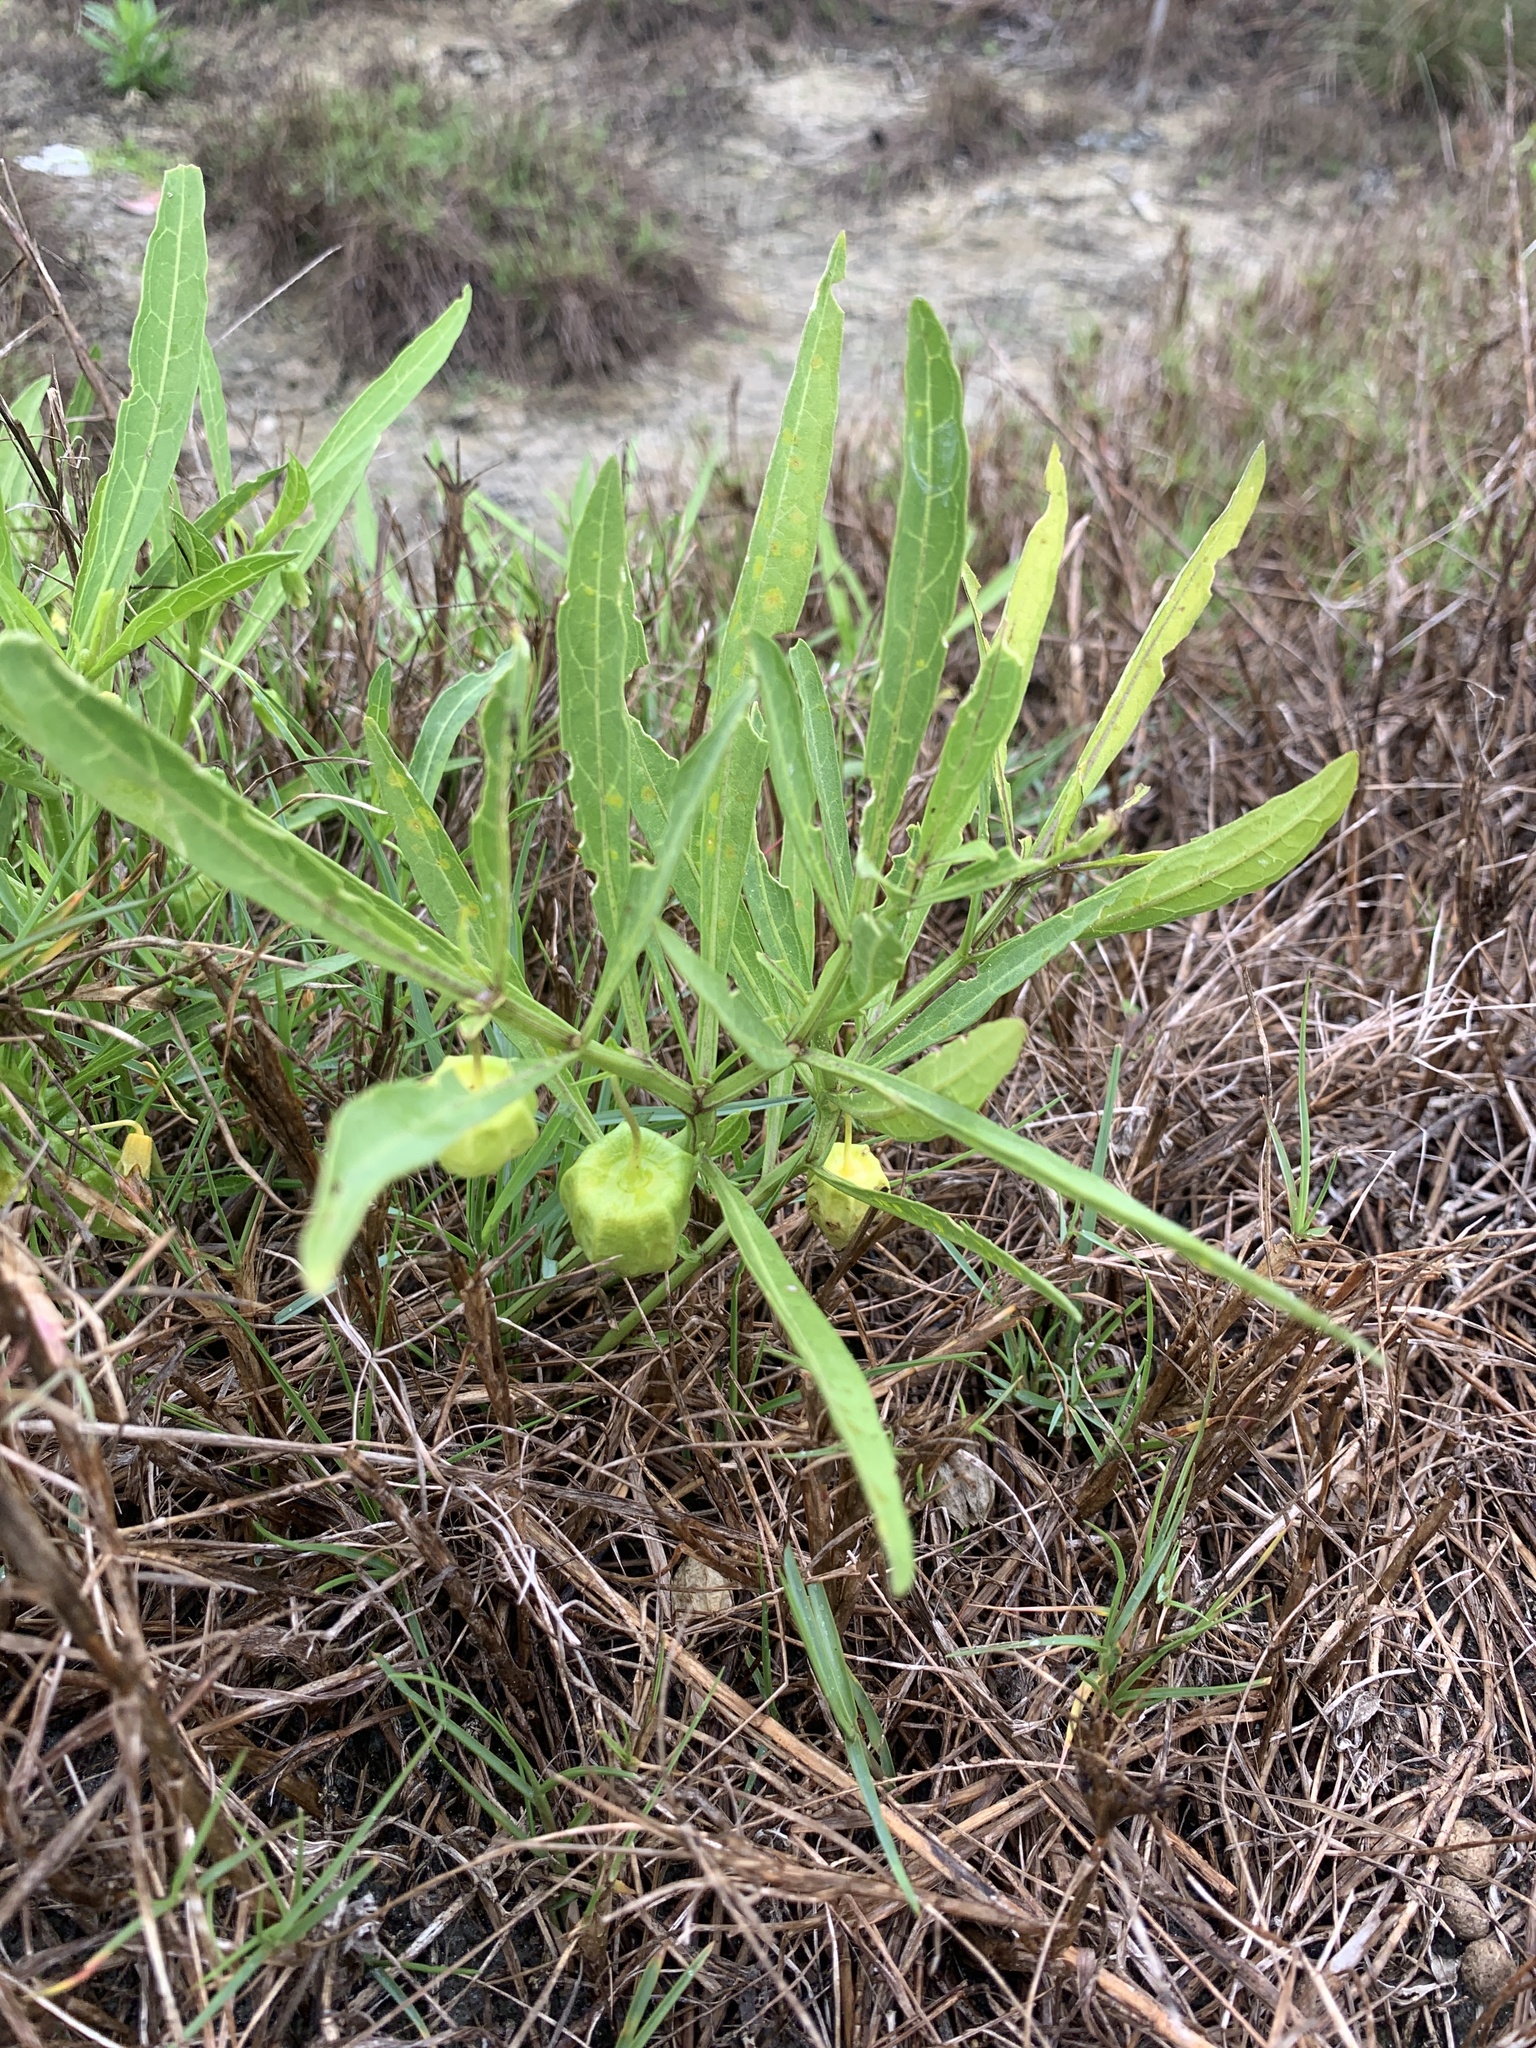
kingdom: Plantae
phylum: Tracheophyta
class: Magnoliopsida
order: Solanales
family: Solanaceae
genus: Physalis
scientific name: Physalis walteri
